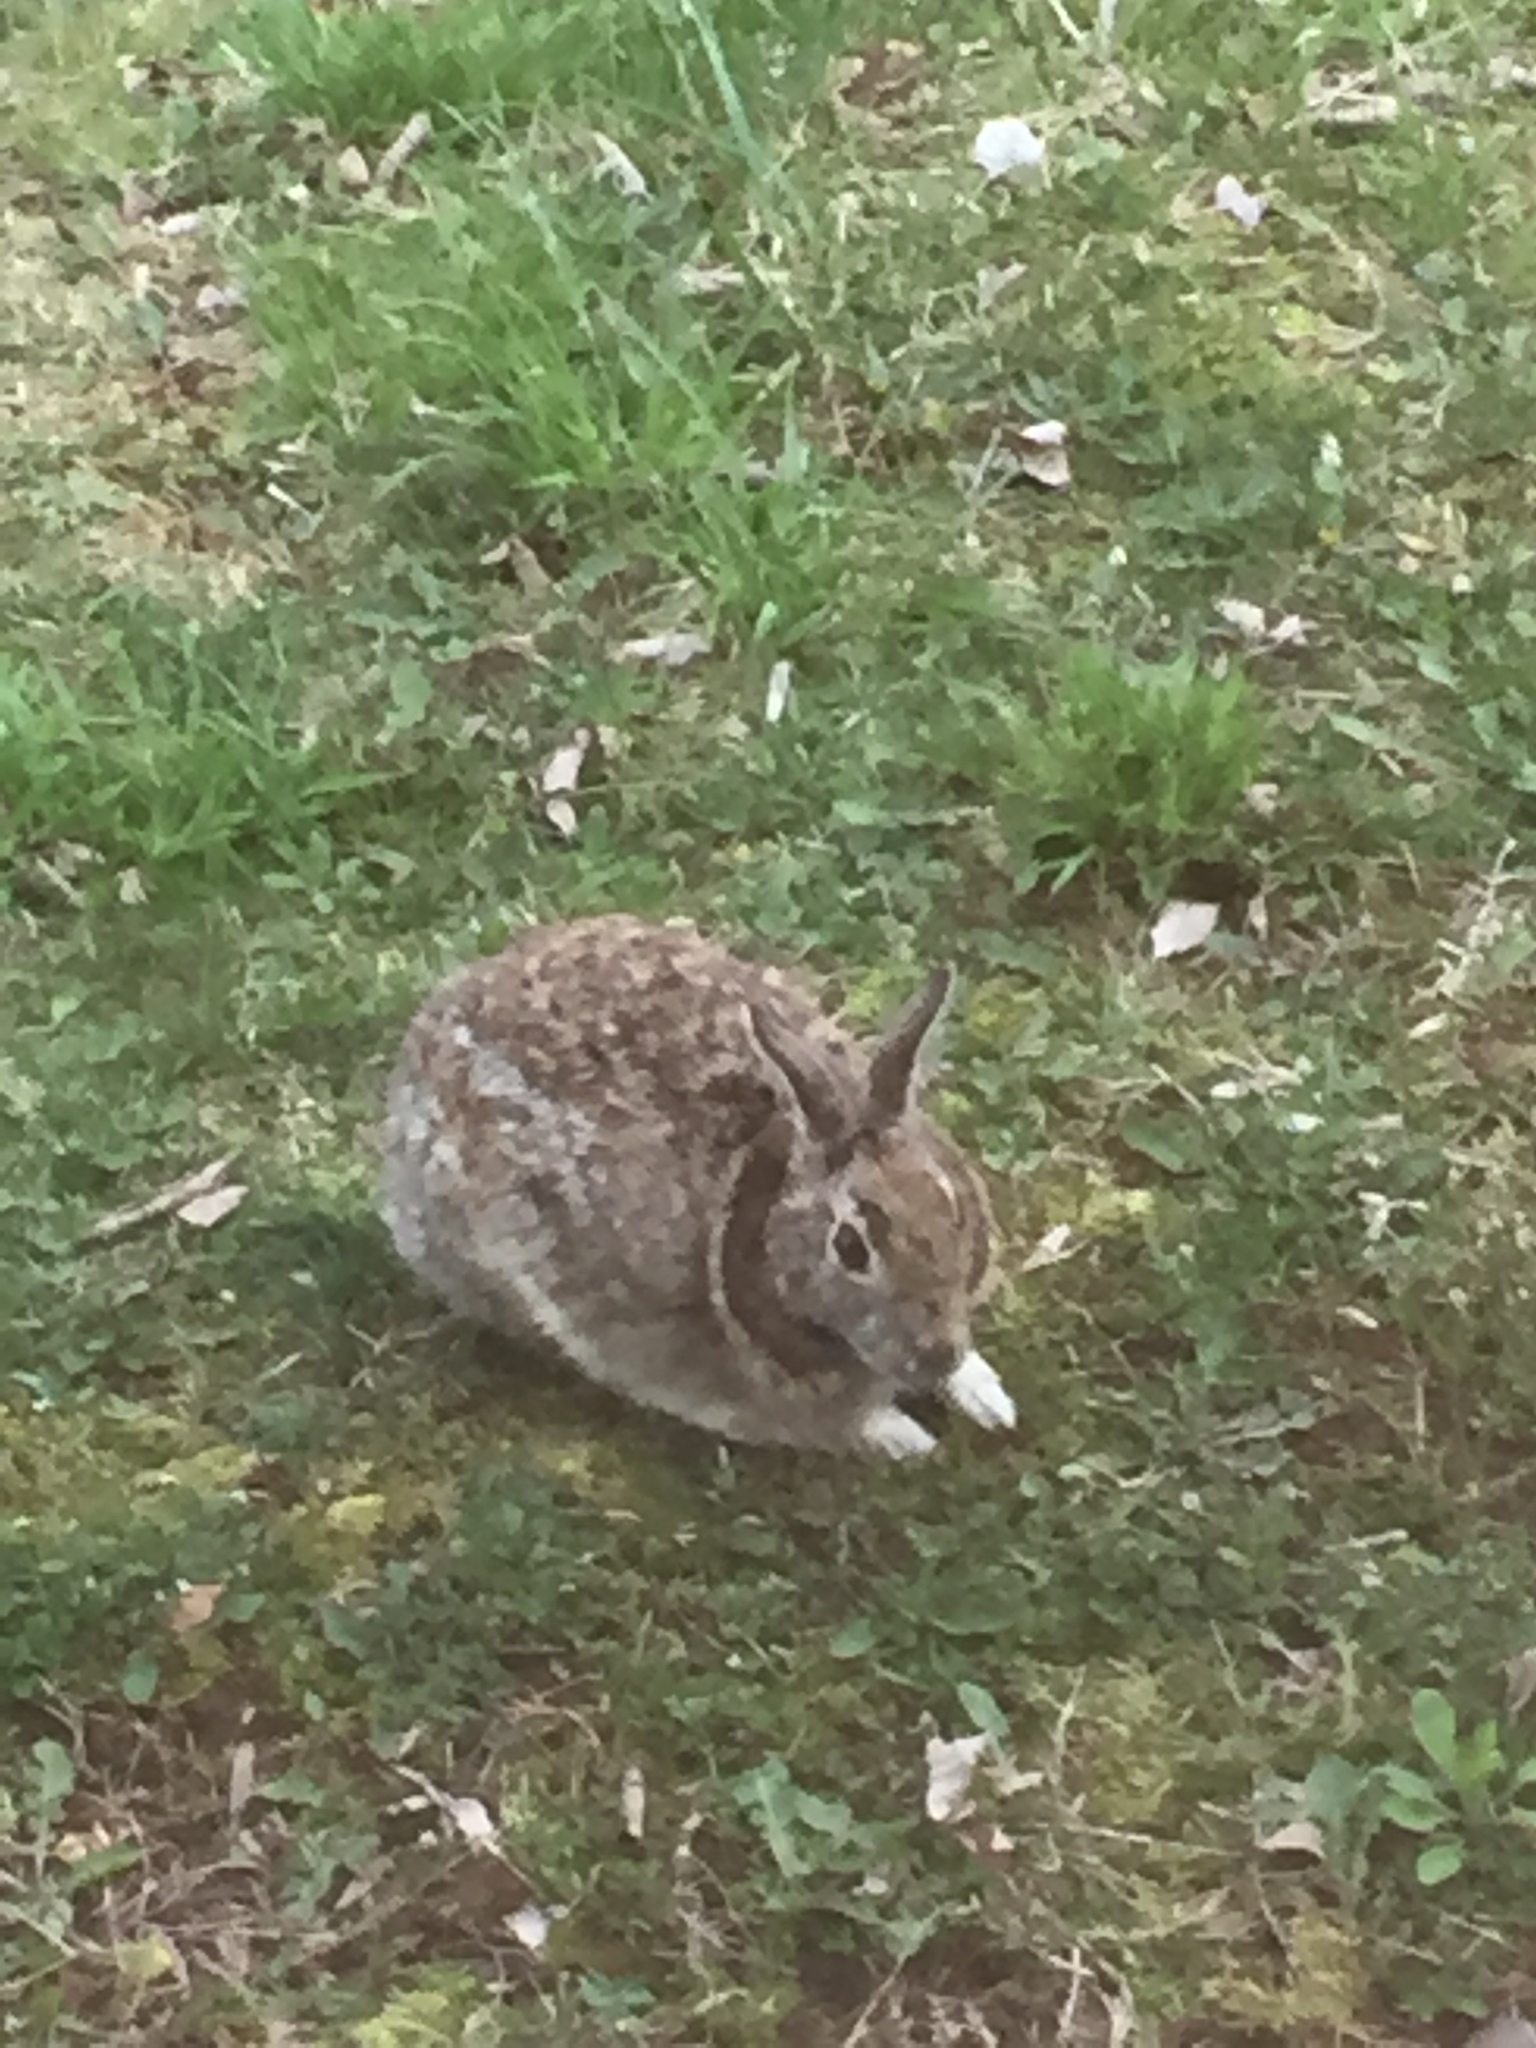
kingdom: Animalia
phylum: Chordata
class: Mammalia
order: Lagomorpha
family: Leporidae
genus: Sylvilagus
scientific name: Sylvilagus floridanus
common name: Eastern cottontail
